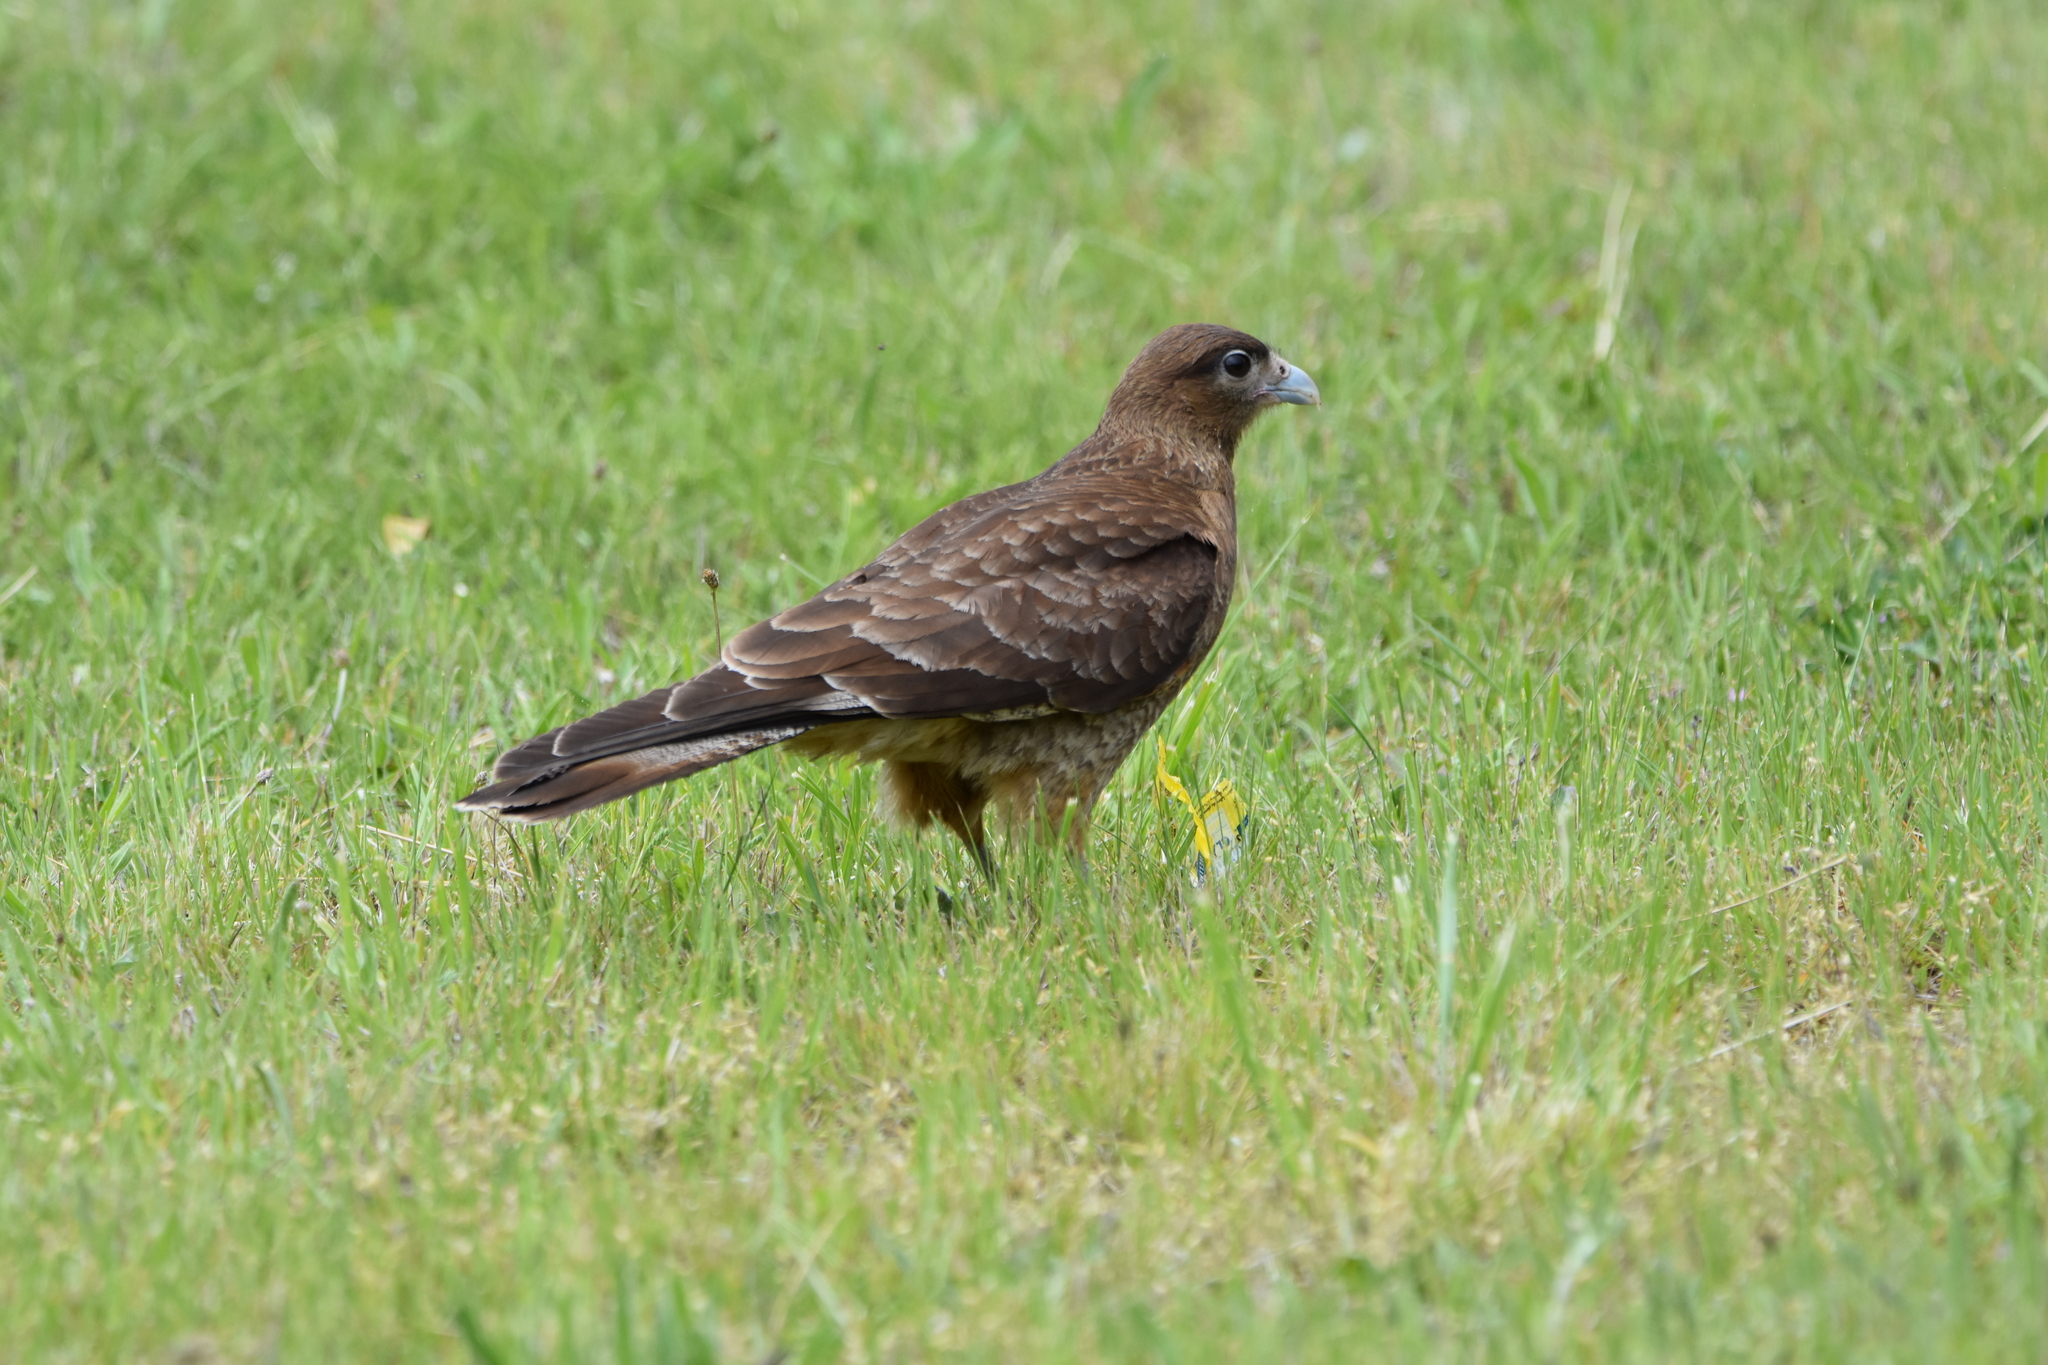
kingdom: Animalia
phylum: Chordata
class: Aves
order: Falconiformes
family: Falconidae
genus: Daptrius
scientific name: Daptrius
